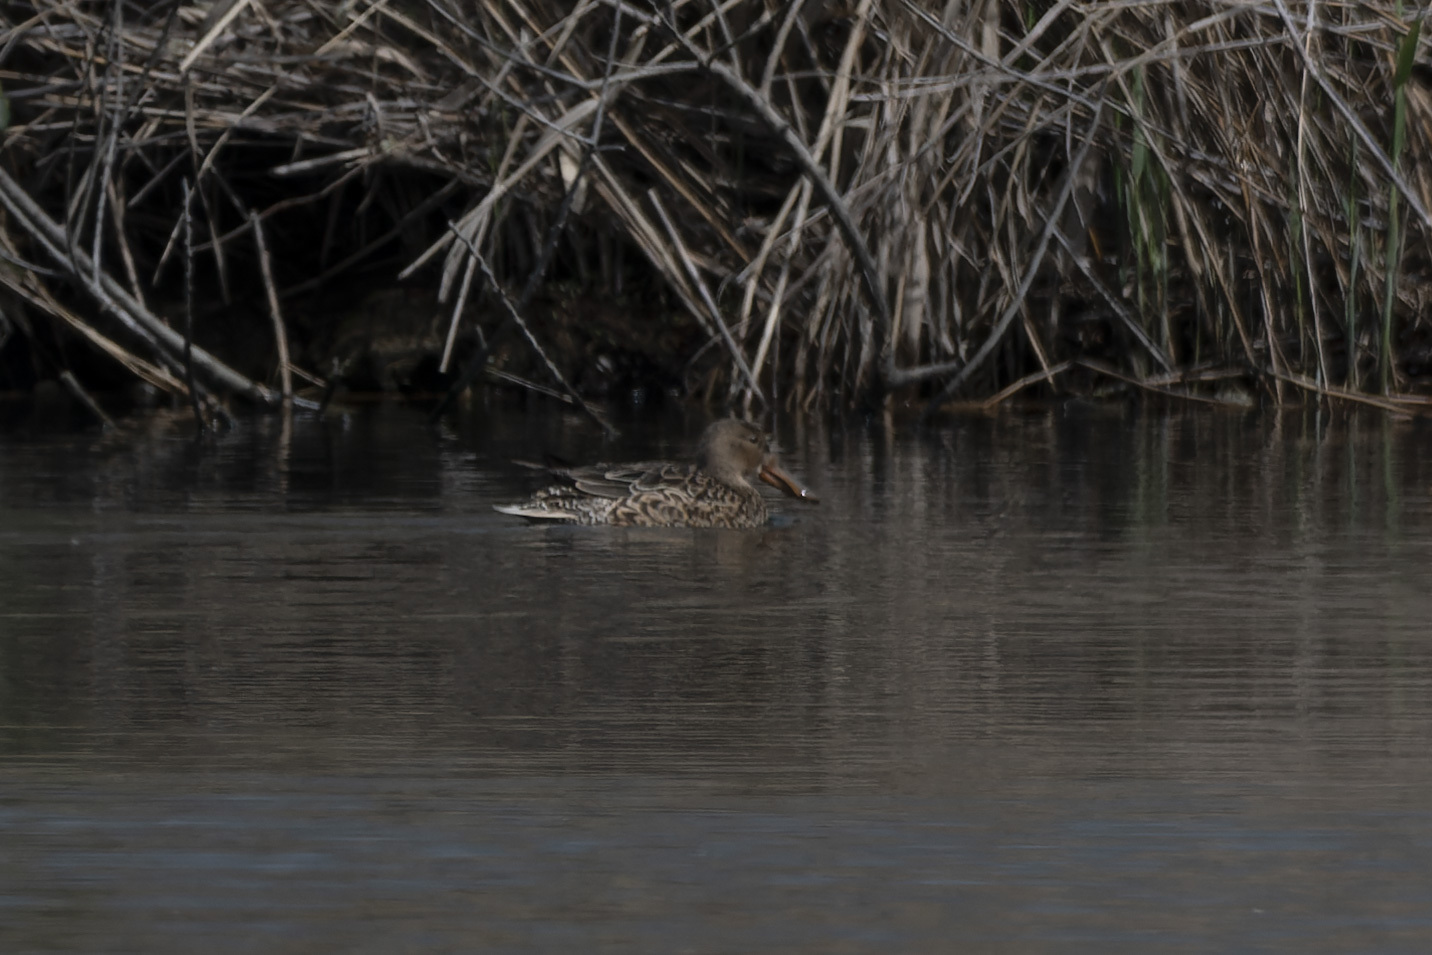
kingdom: Animalia
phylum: Chordata
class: Aves
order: Anseriformes
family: Anatidae
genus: Spatula
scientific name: Spatula clypeata
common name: Northern shoveler
